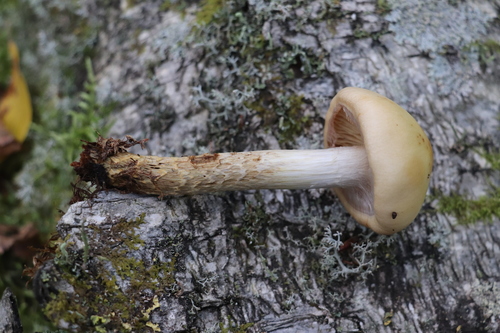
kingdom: Fungi
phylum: Basidiomycota
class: Agaricomycetes
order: Agaricales
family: Cortinariaceae
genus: Cortinarius
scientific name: Cortinarius trivialis
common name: Girdled webcap
